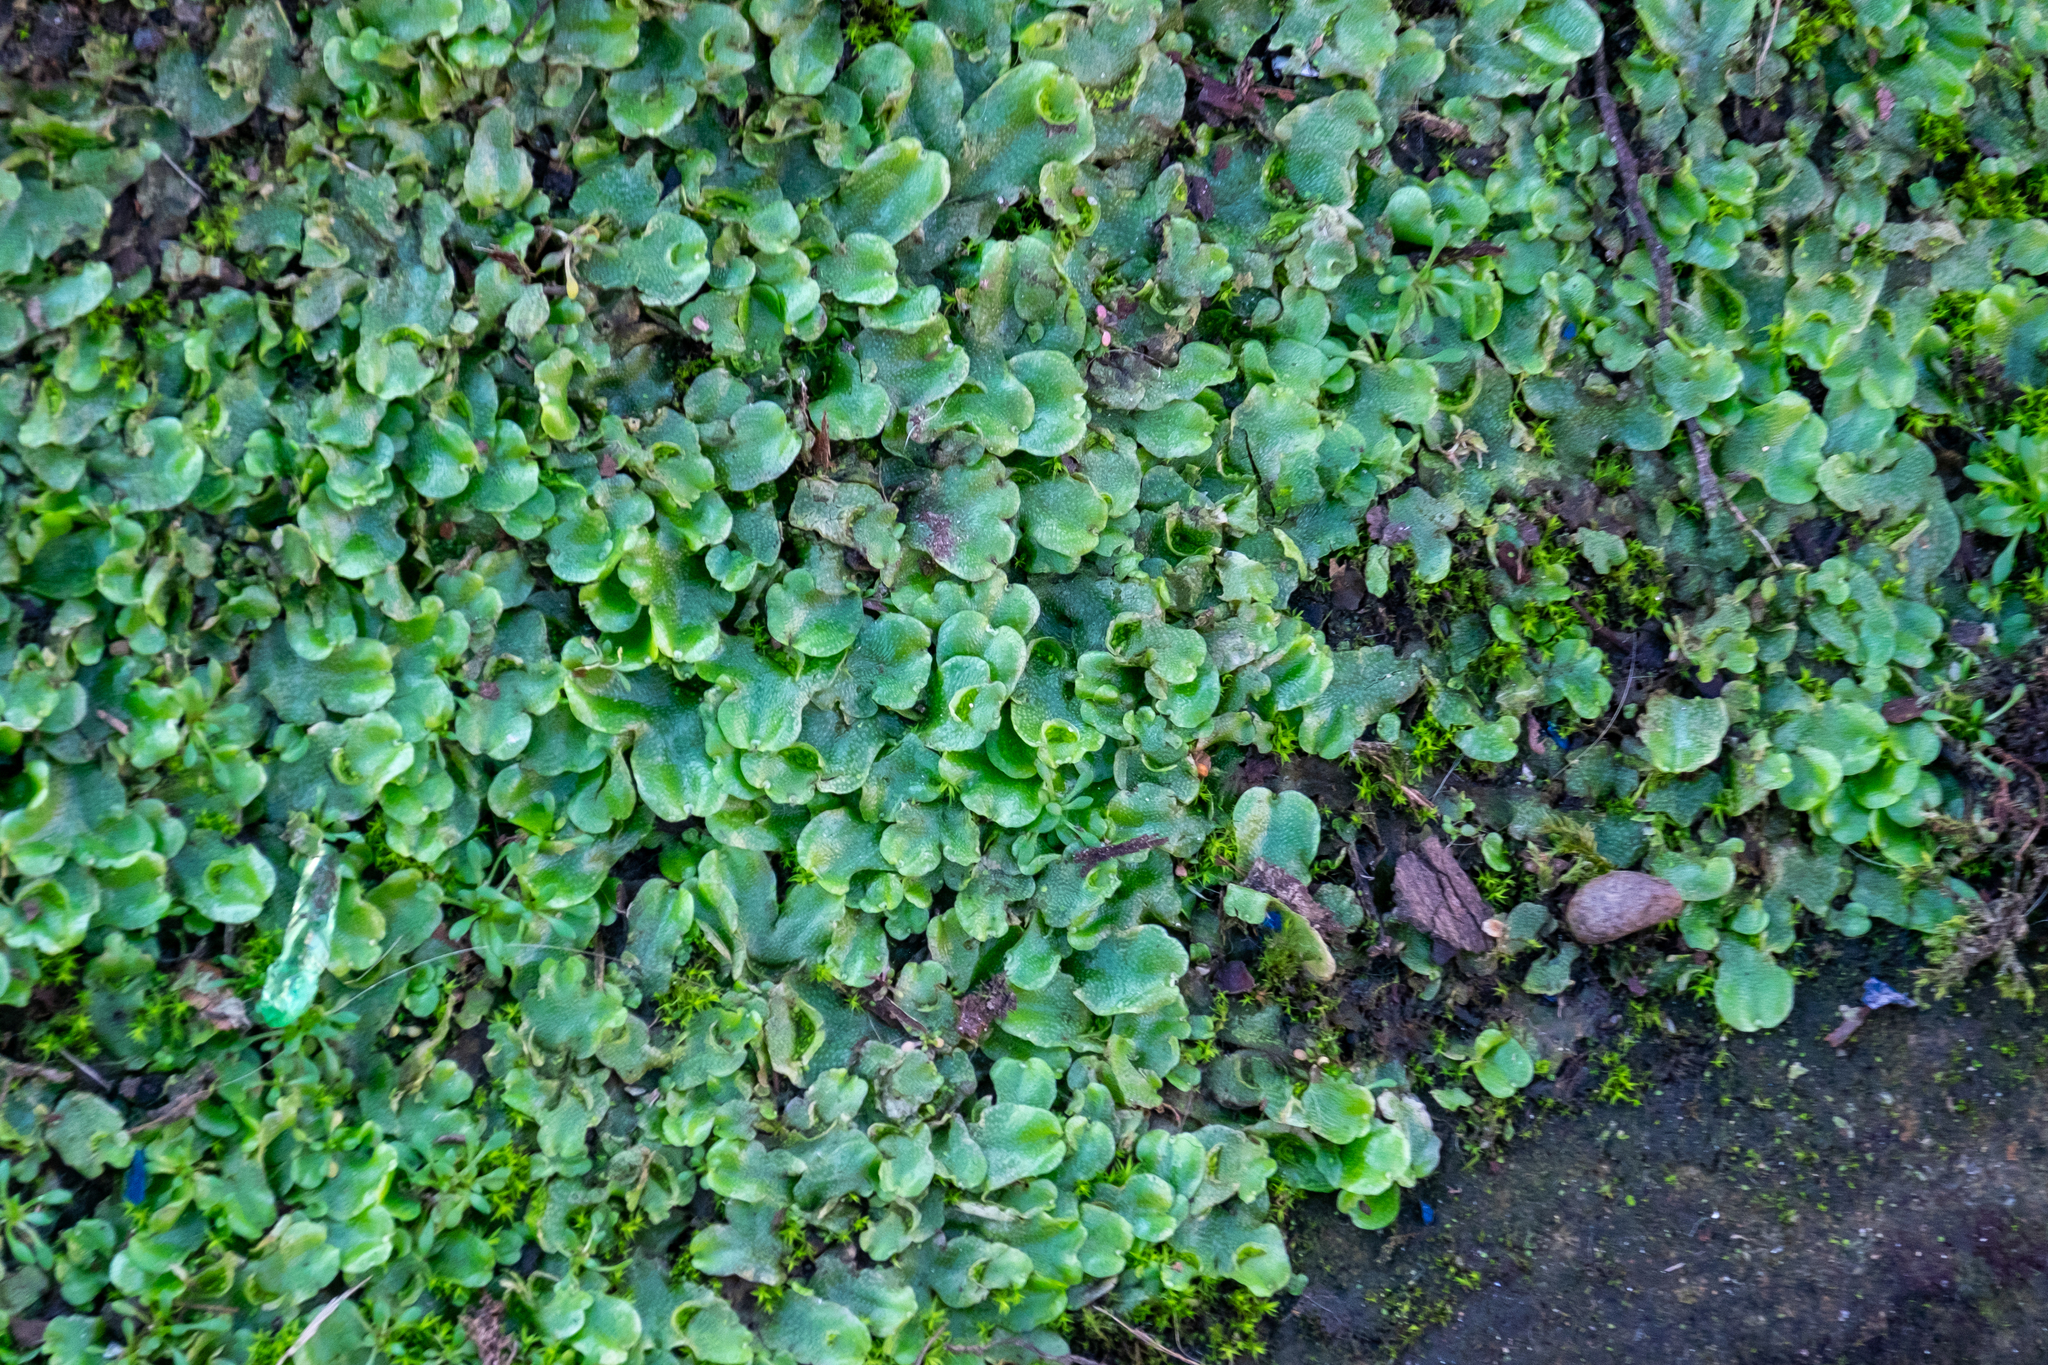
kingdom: Plantae
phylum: Marchantiophyta
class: Marchantiopsida
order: Lunulariales
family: Lunulariaceae
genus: Lunularia
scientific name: Lunularia cruciata
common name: Crescent-cup liverwort
